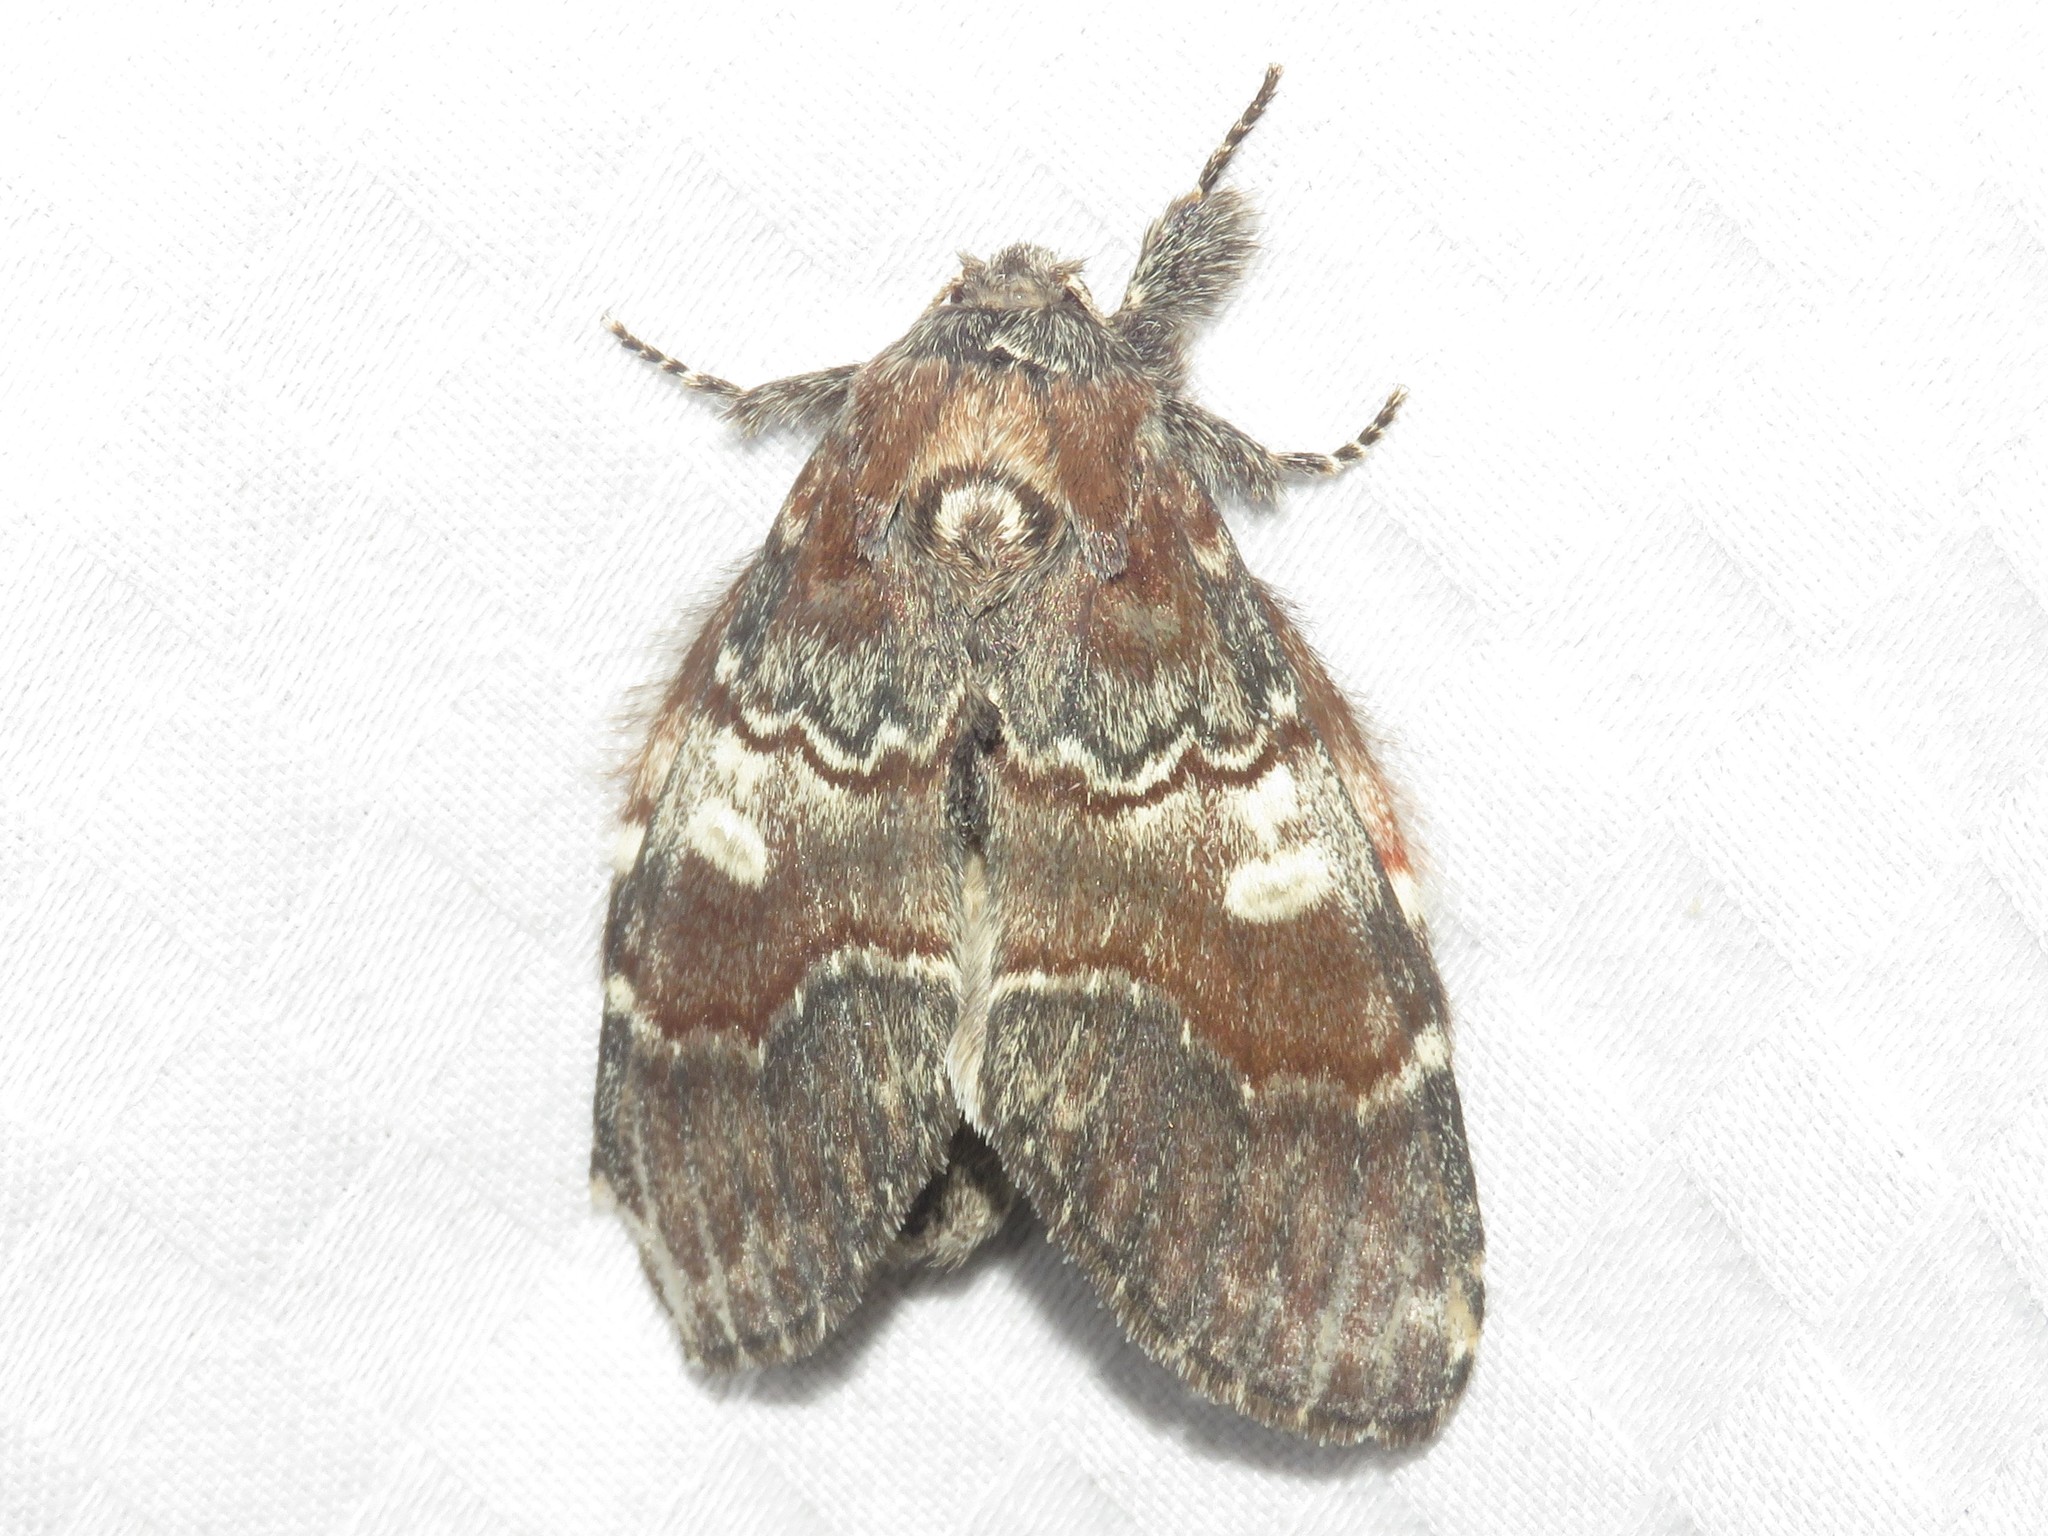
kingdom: Animalia
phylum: Arthropoda
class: Insecta
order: Lepidoptera
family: Notodontidae
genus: Peridea
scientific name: Peridea ferruginea
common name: Chocolate prominent
